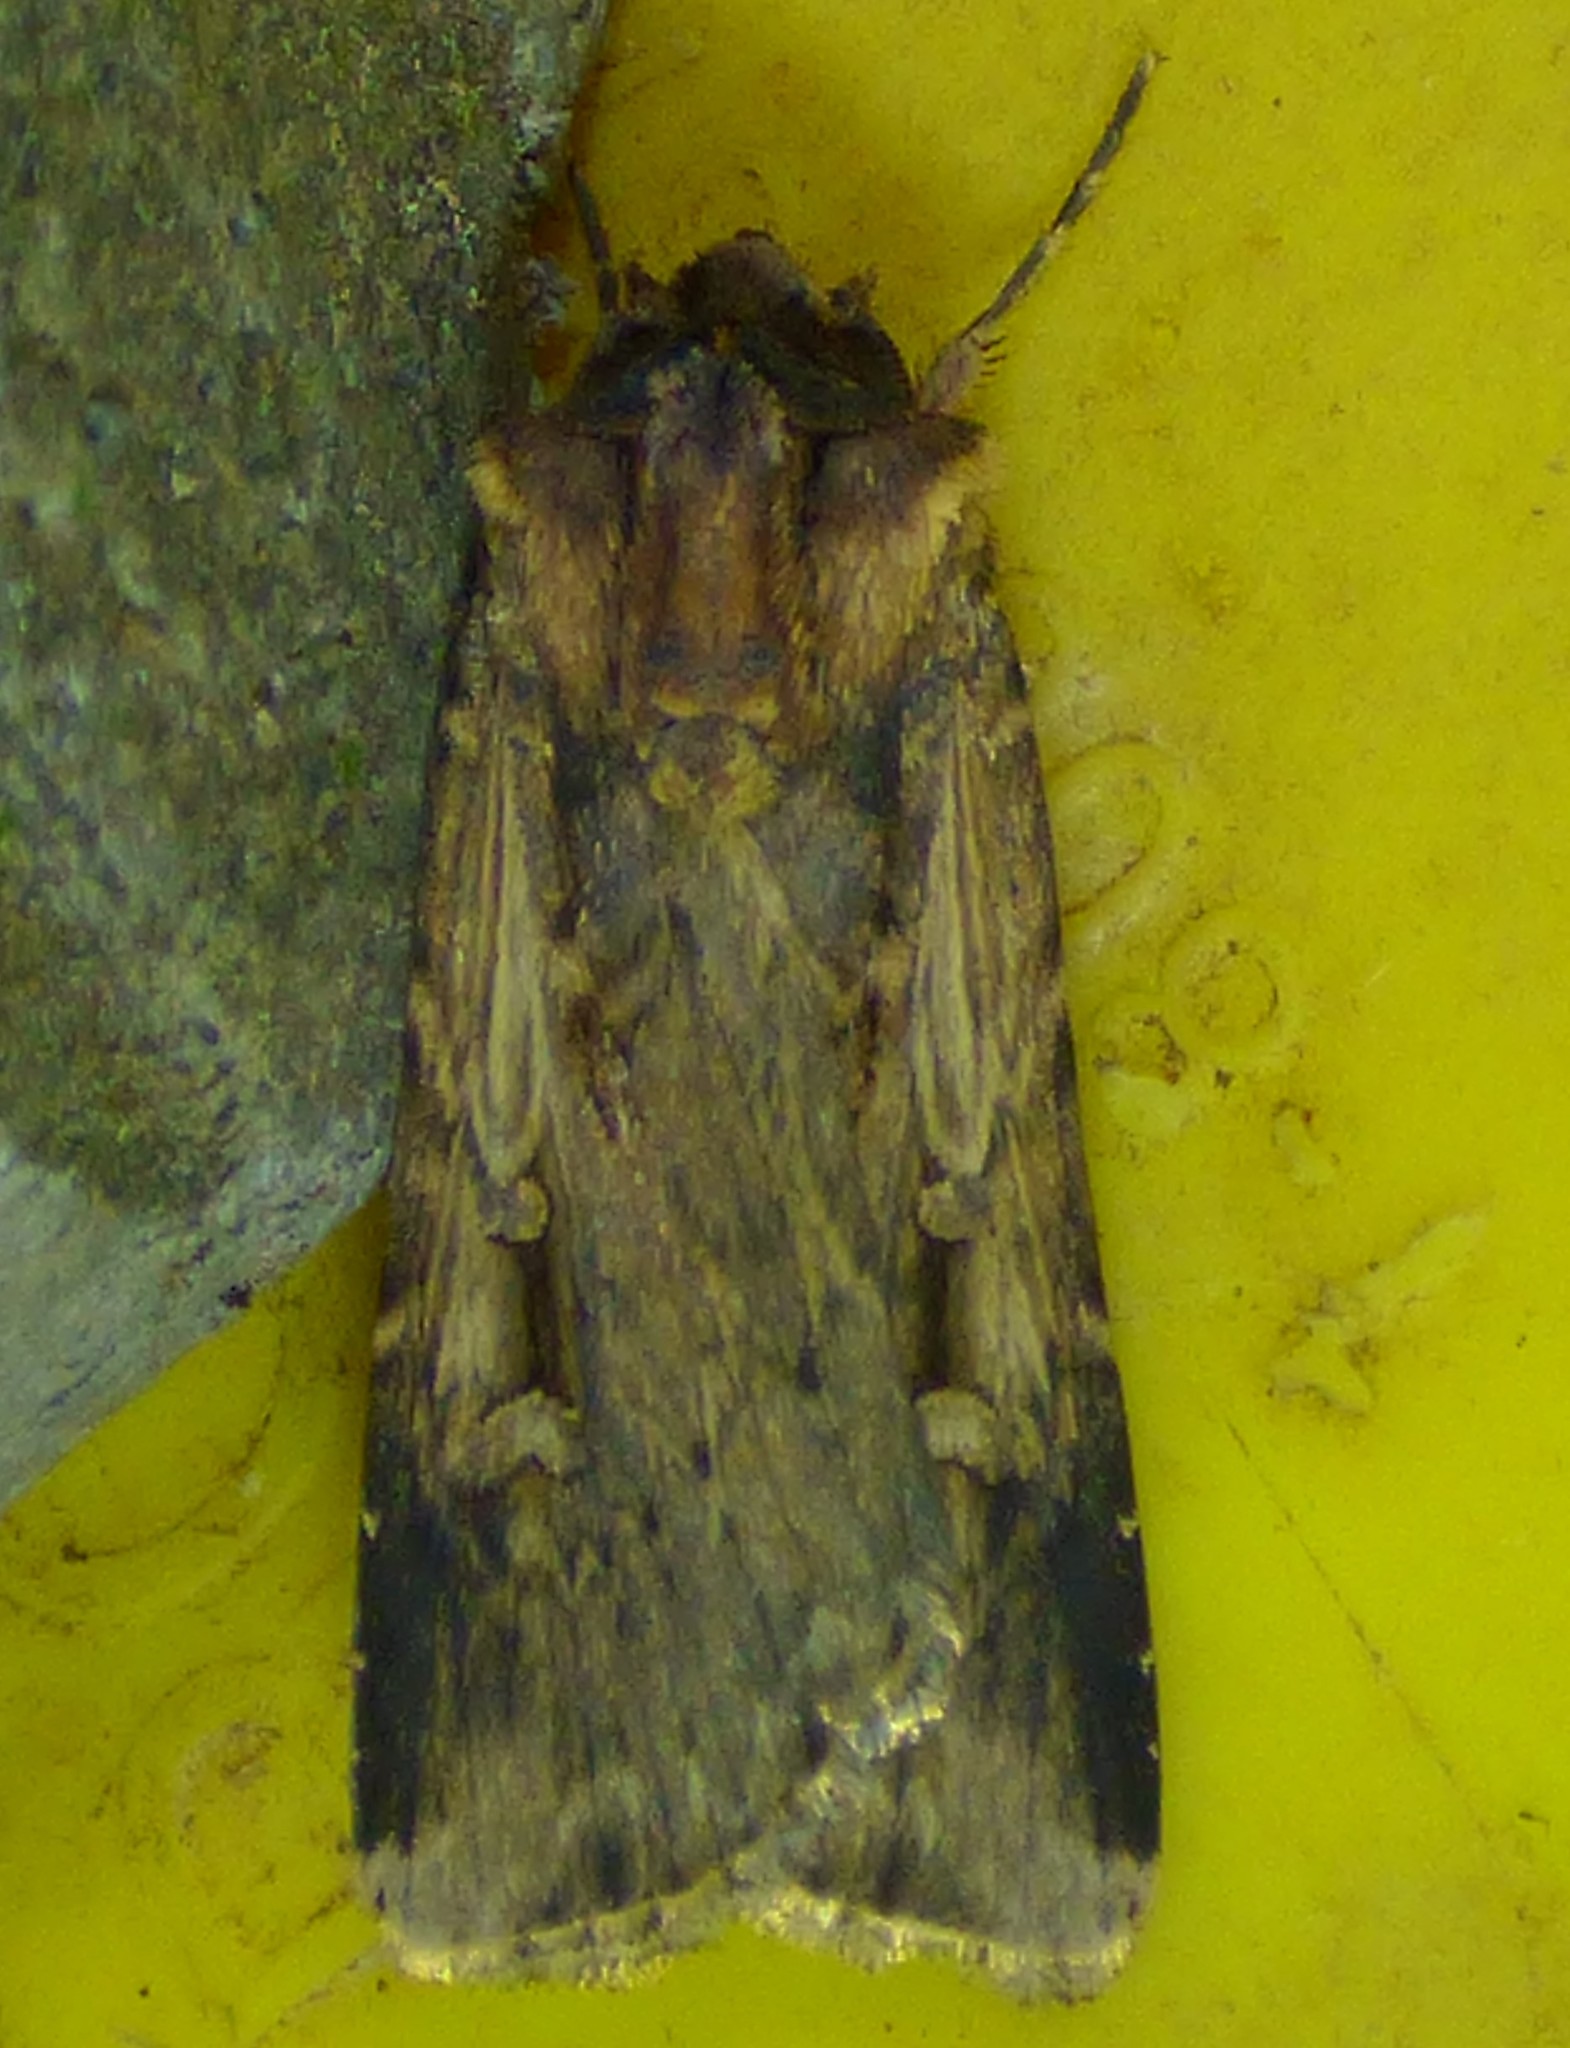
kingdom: Animalia
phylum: Arthropoda
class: Insecta
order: Lepidoptera
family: Noctuidae
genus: Feltia
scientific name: Feltia subterranea
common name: Granulate cutworm
